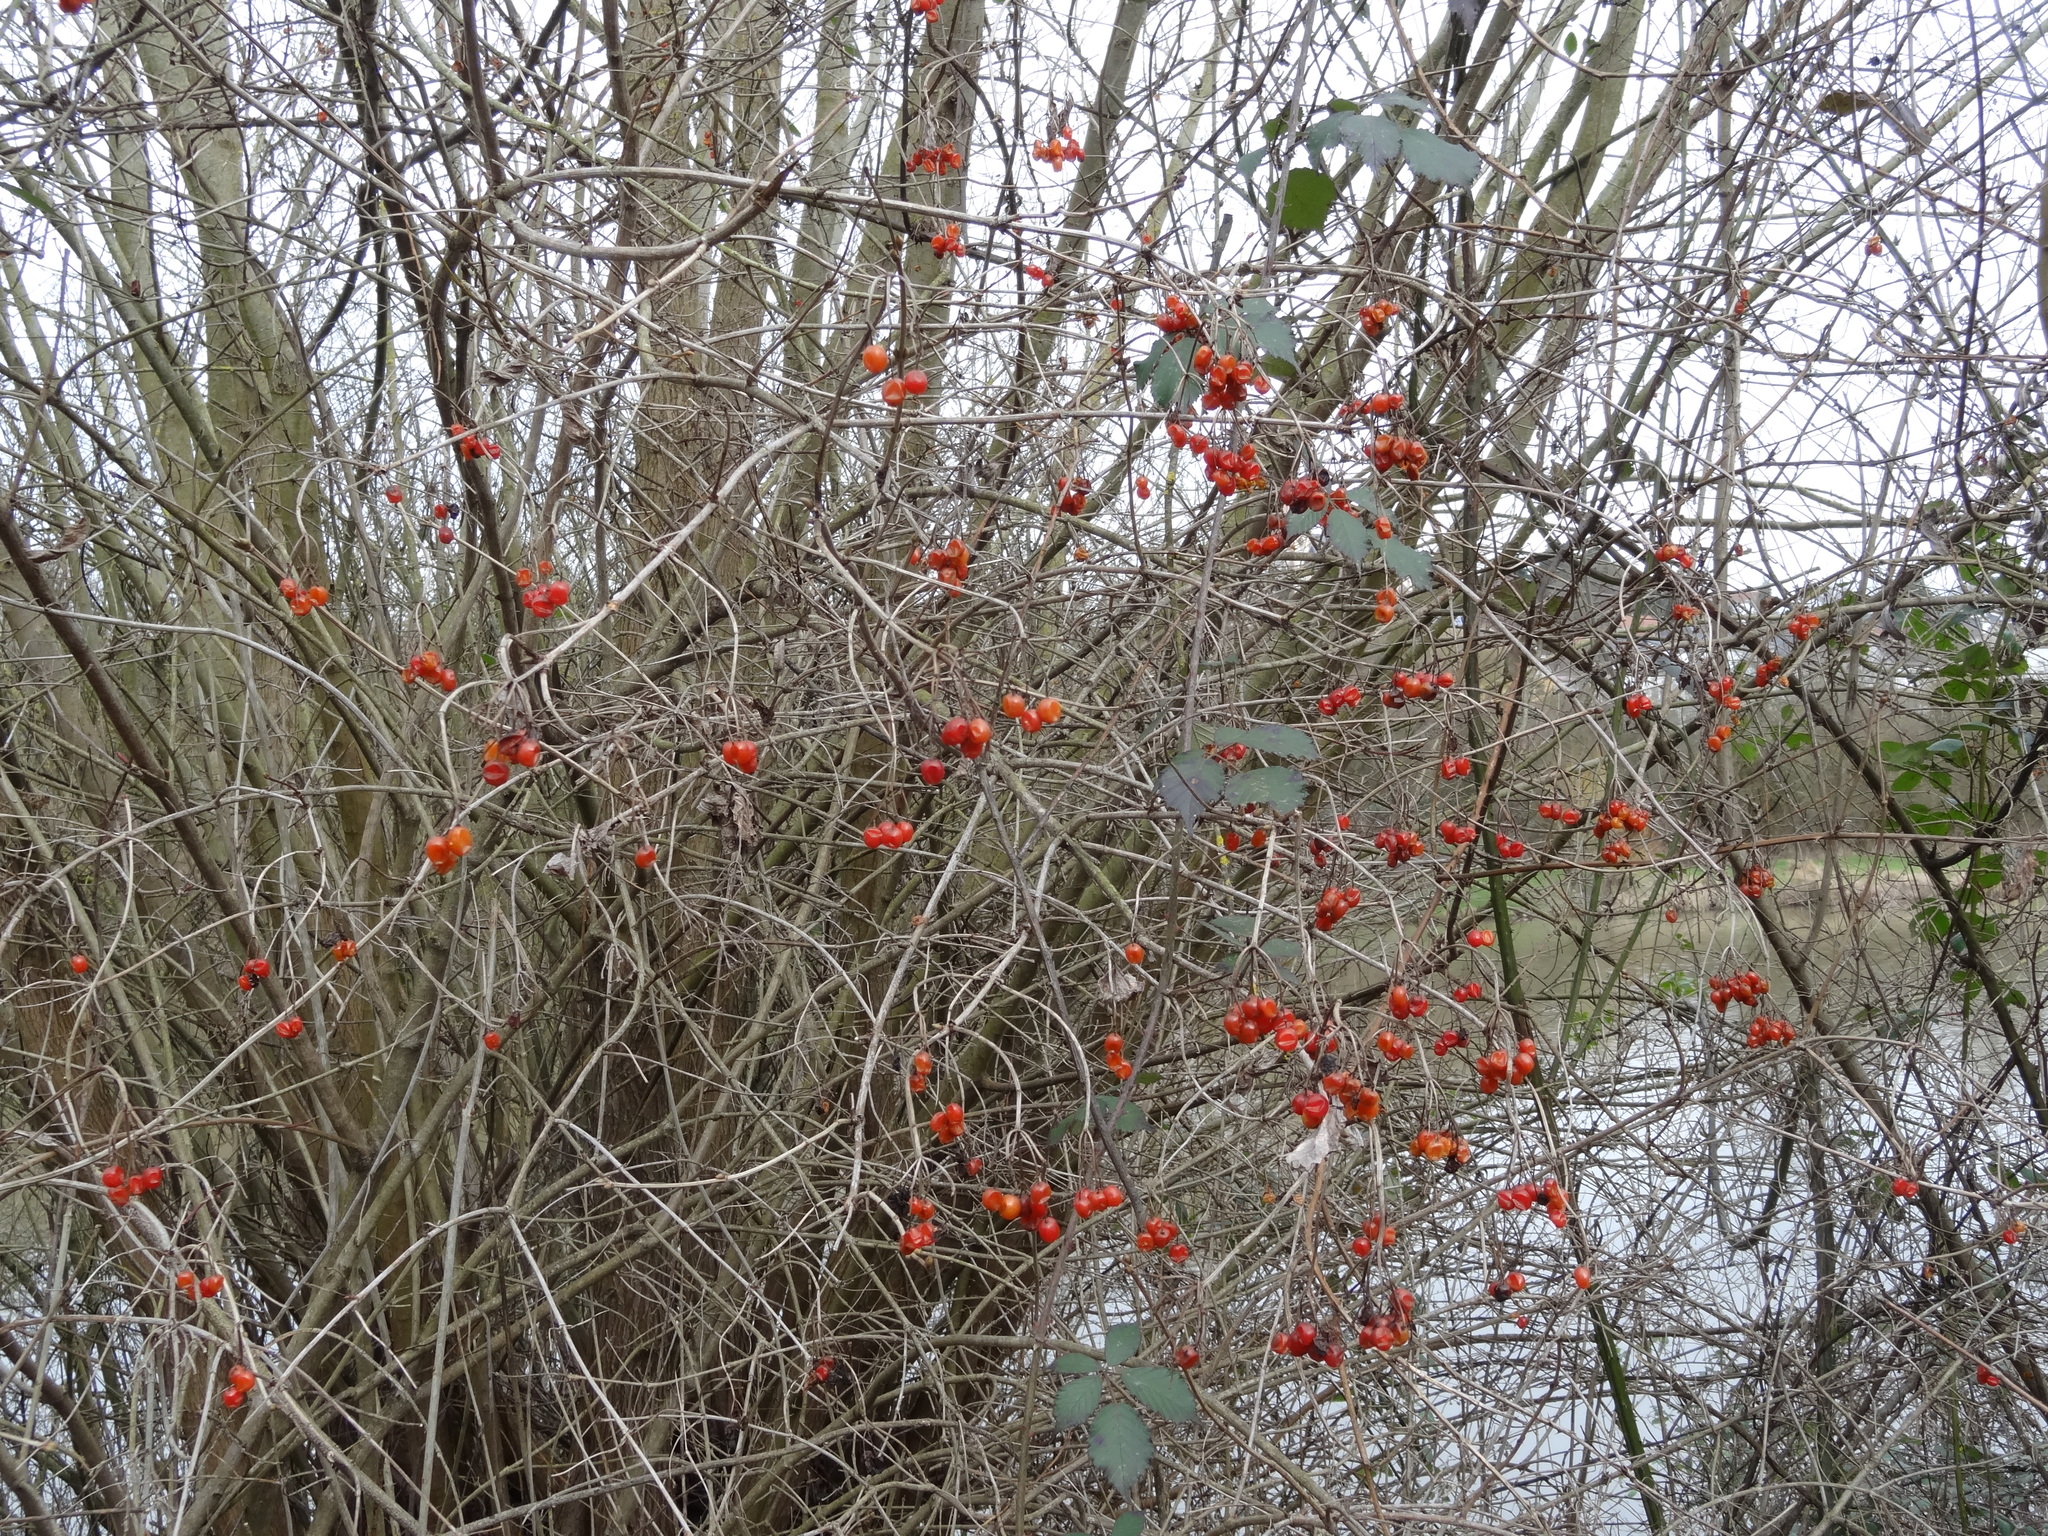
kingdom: Plantae
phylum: Tracheophyta
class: Magnoliopsida
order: Dipsacales
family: Viburnaceae
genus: Viburnum
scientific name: Viburnum opulus
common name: Guelder-rose
